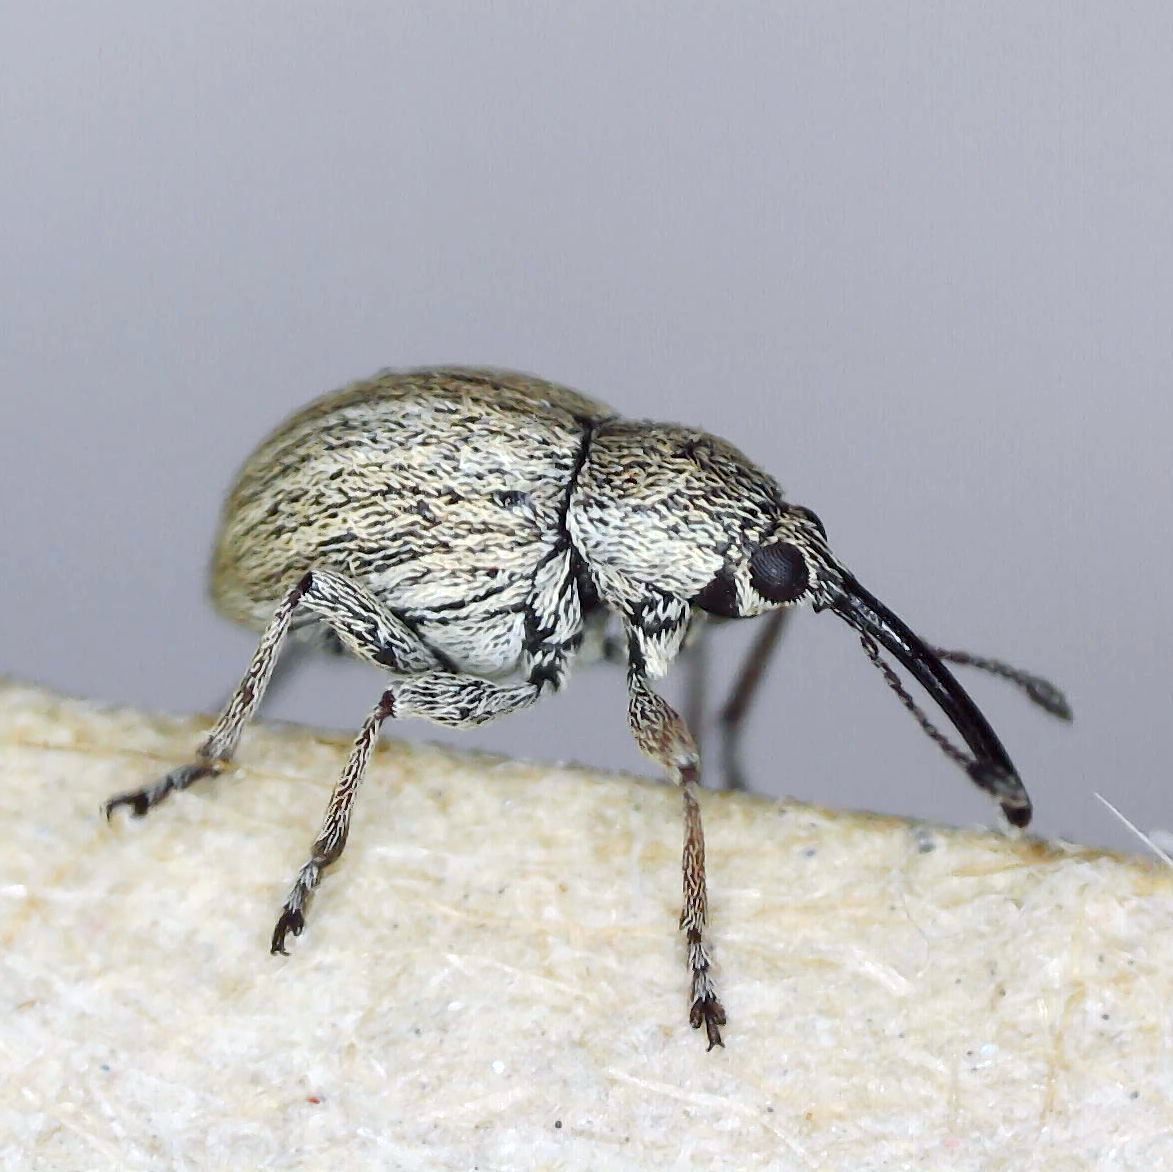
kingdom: Animalia
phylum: Arthropoda
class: Insecta
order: Coleoptera
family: Brentidae
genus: Exapion
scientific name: Exapion ulicis
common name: Gorse seed weevil
